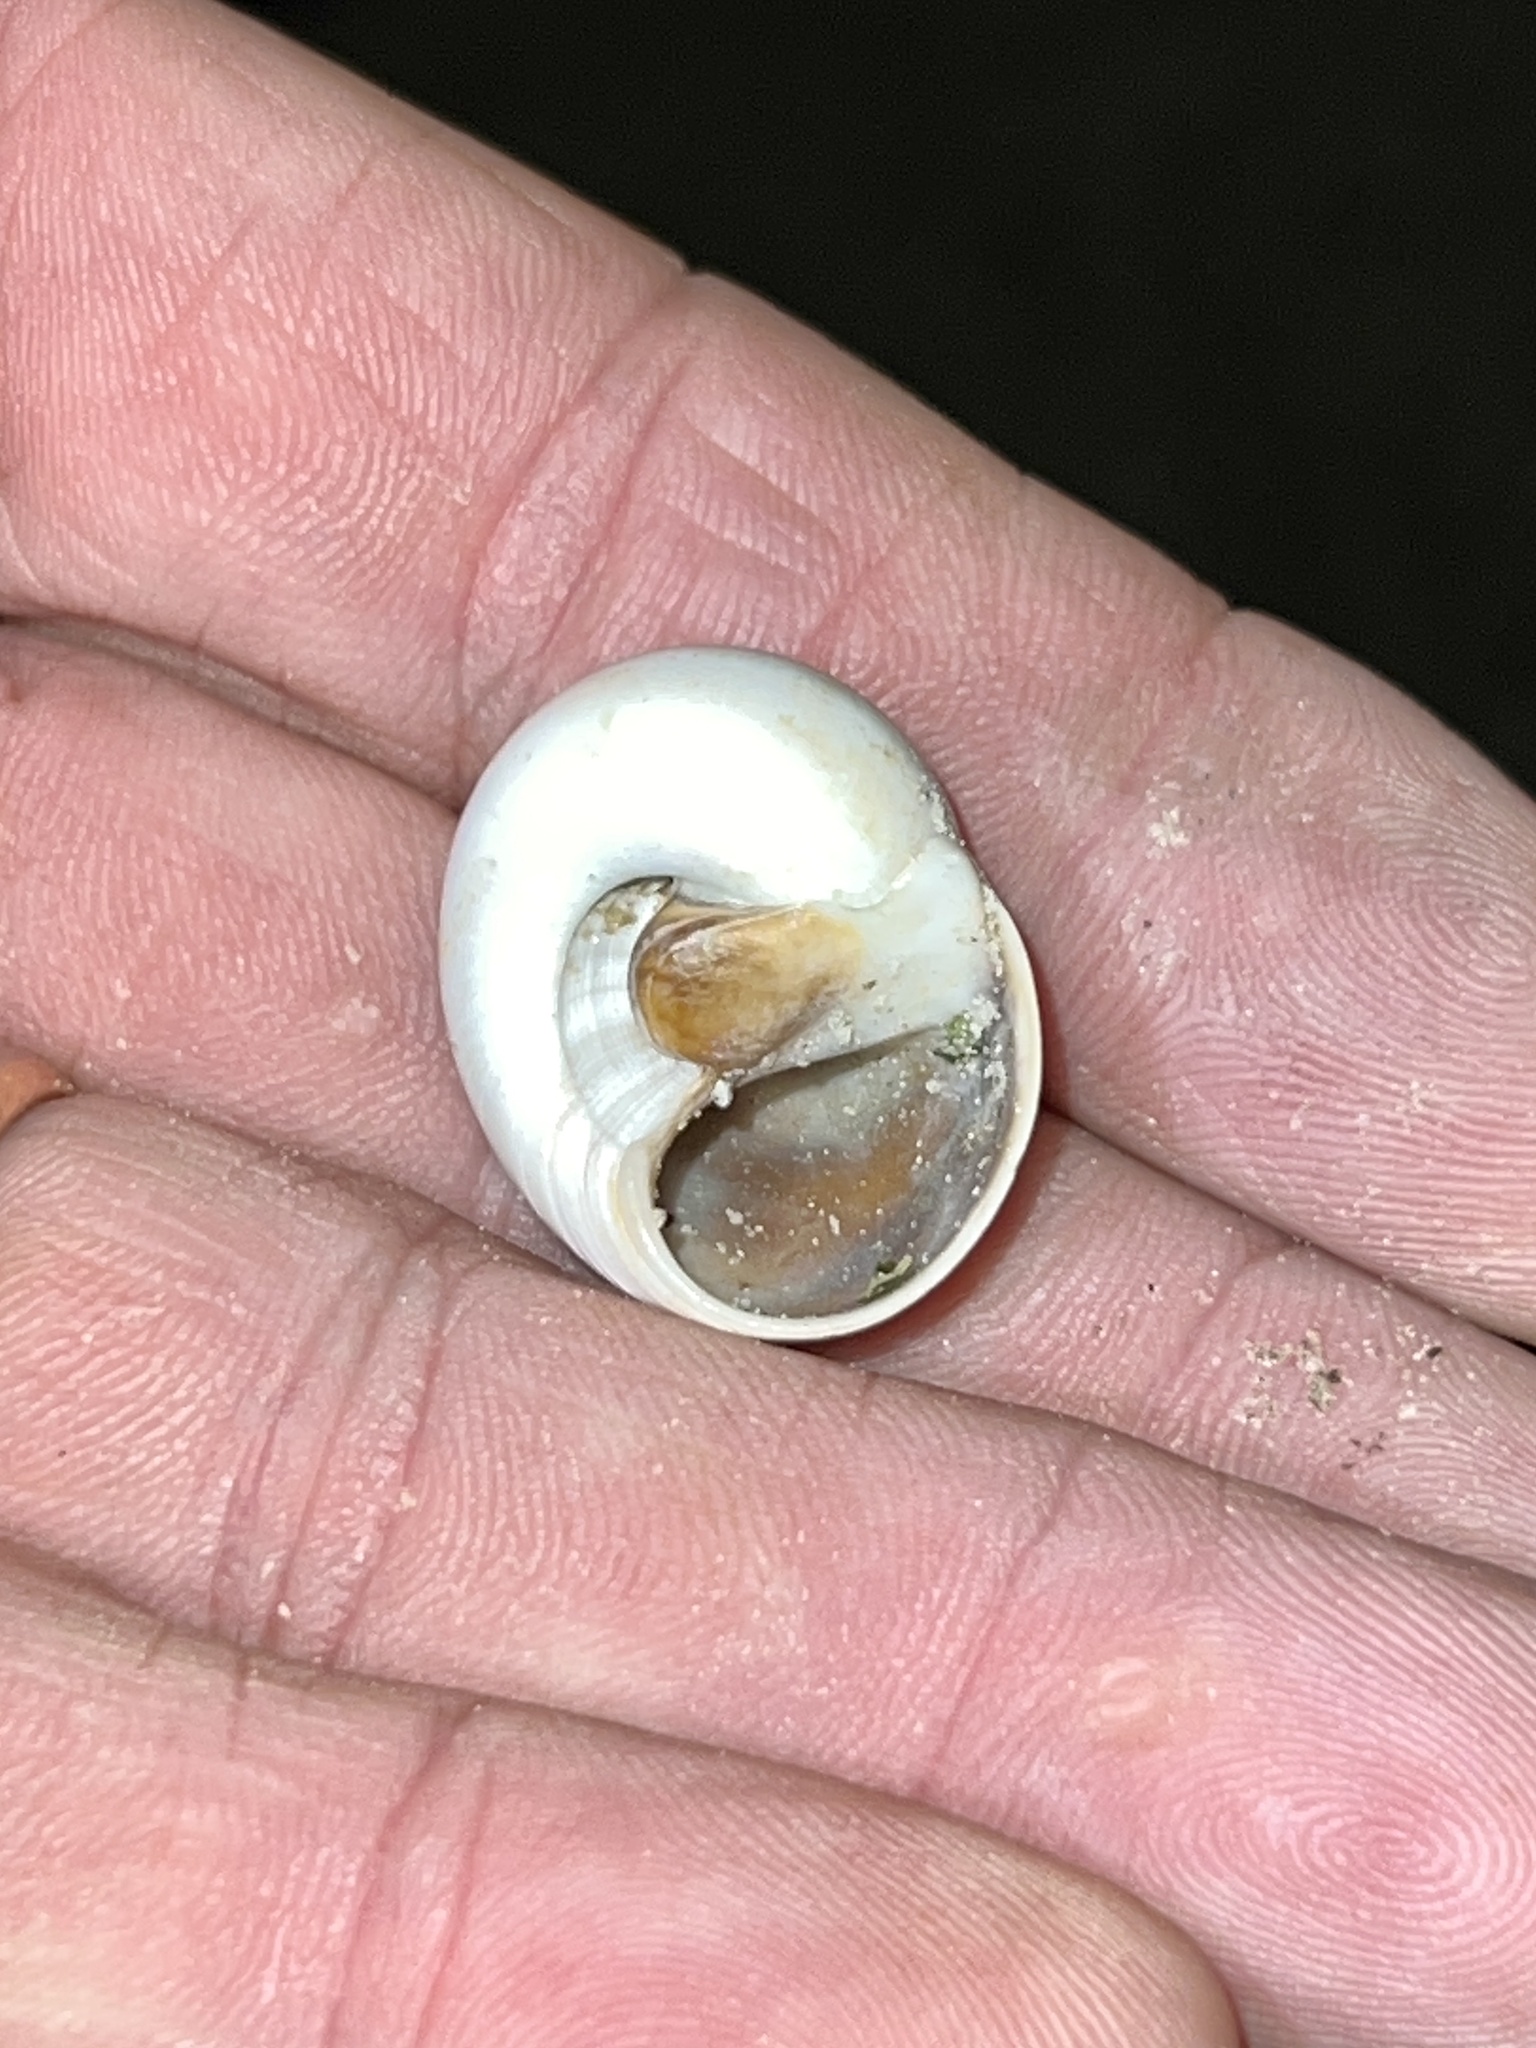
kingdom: Animalia
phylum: Mollusca
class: Gastropoda
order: Littorinimorpha
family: Naticidae
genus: Neverita
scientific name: Neverita delessertiana
